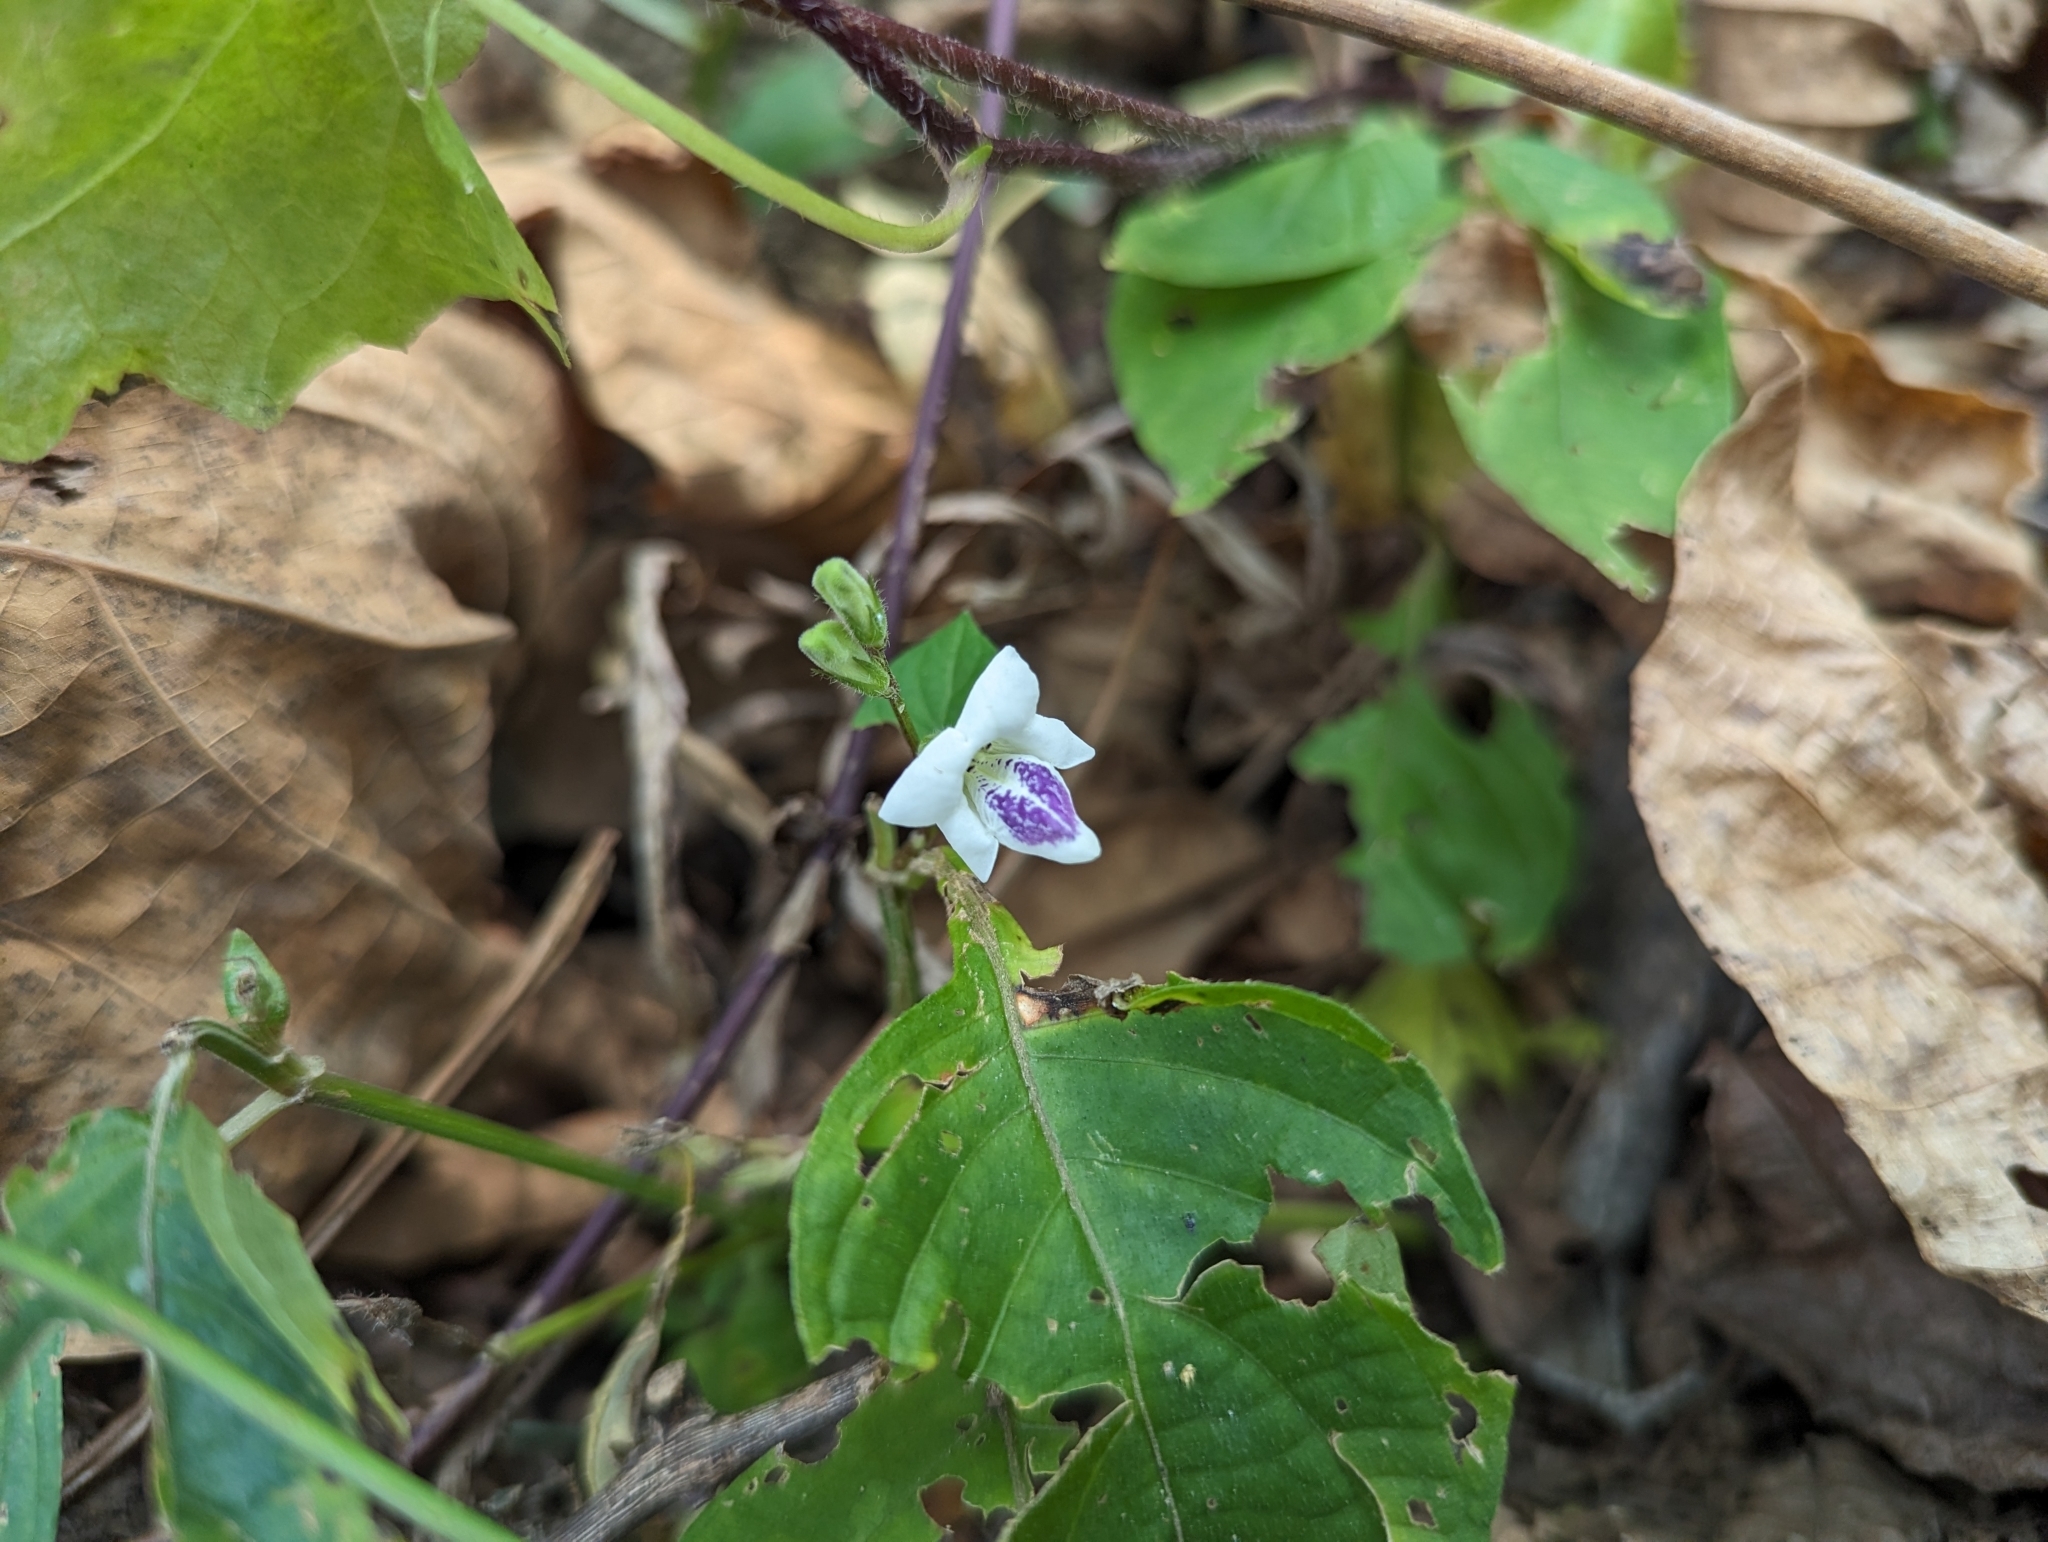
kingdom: Plantae
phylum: Tracheophyta
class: Magnoliopsida
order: Lamiales
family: Acanthaceae
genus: Asystasia
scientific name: Asystasia intrusa
